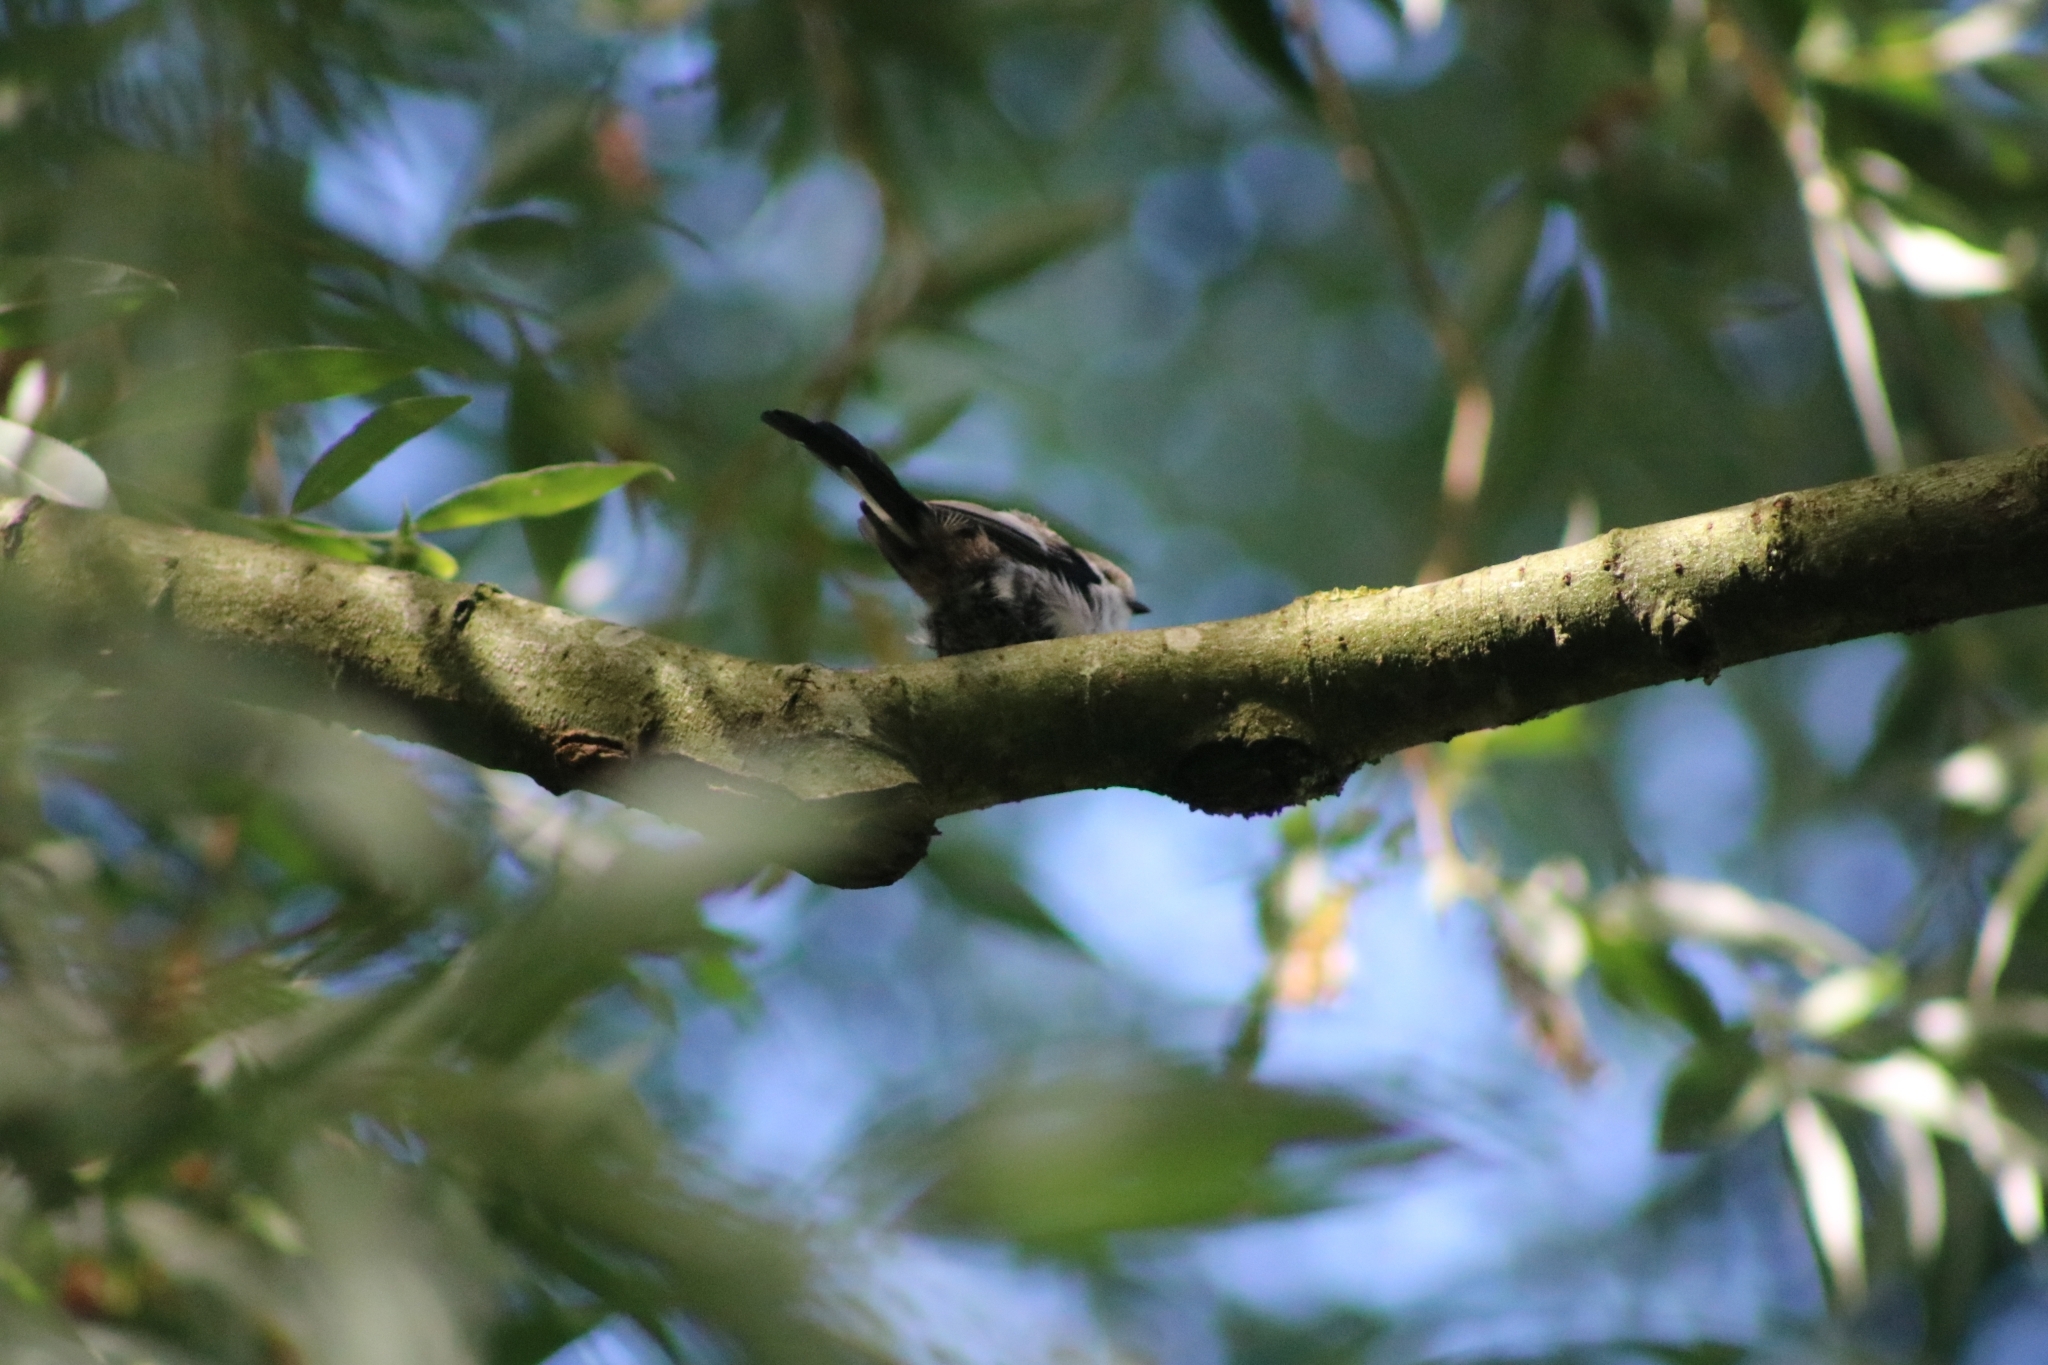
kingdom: Animalia
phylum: Chordata
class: Aves
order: Passeriformes
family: Aegithalidae
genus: Aegithalos
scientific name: Aegithalos caudatus
